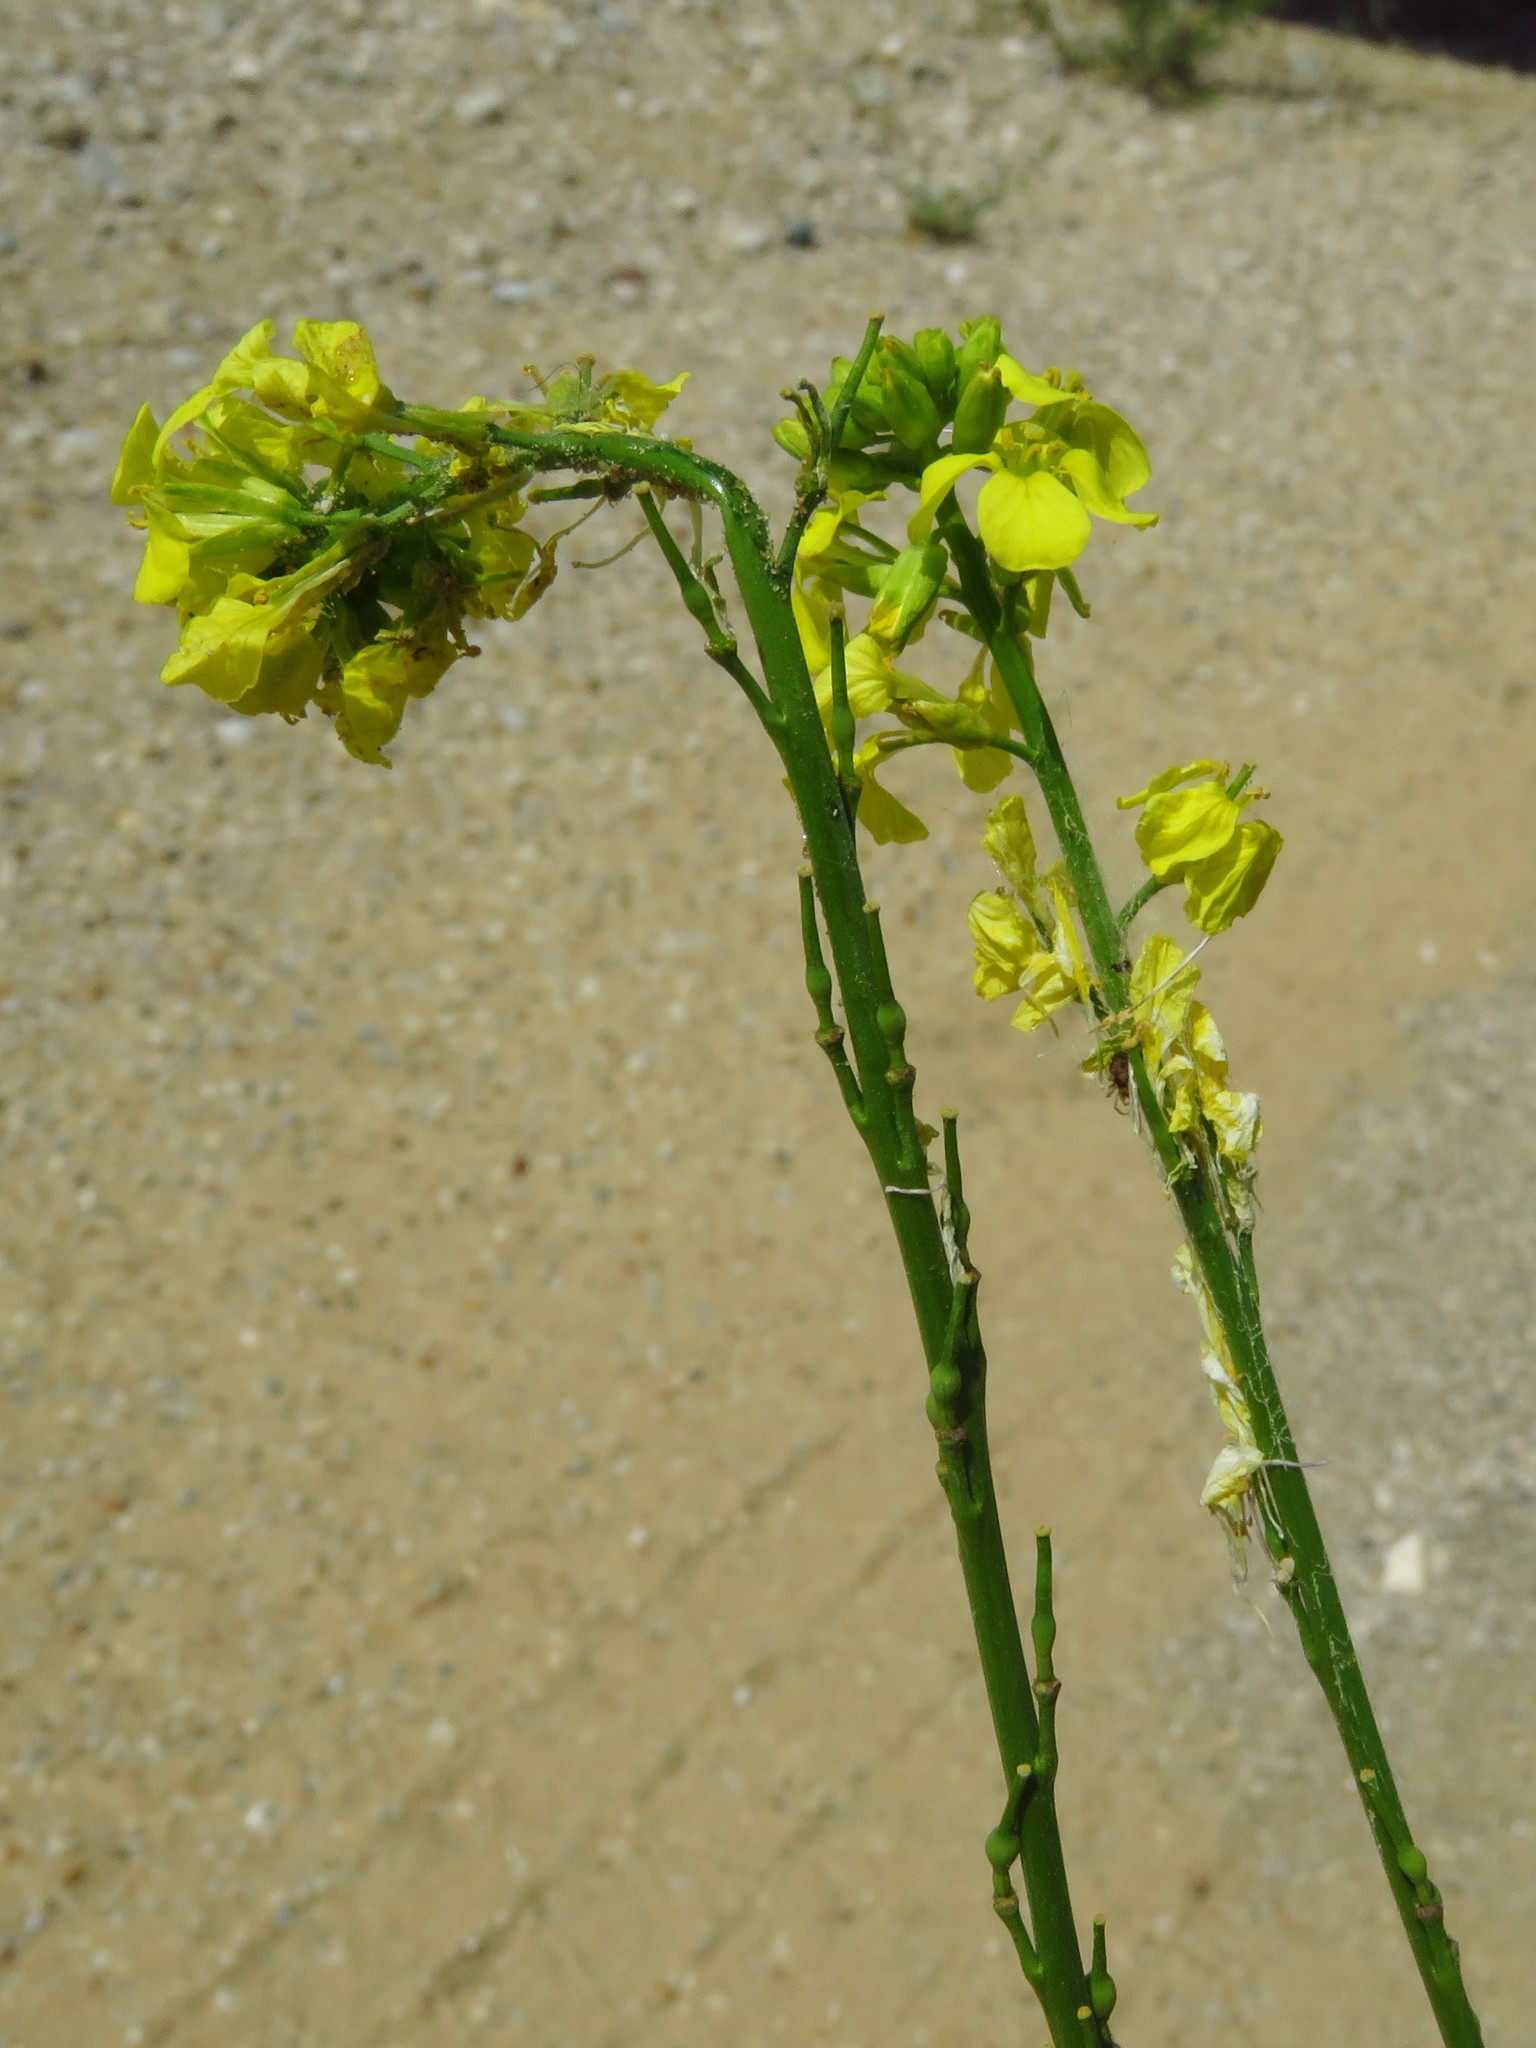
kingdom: Plantae
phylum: Tracheophyta
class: Magnoliopsida
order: Brassicales
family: Brassicaceae
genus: Rapistrum
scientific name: Rapistrum rugosum
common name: Annual bastardcabbage
